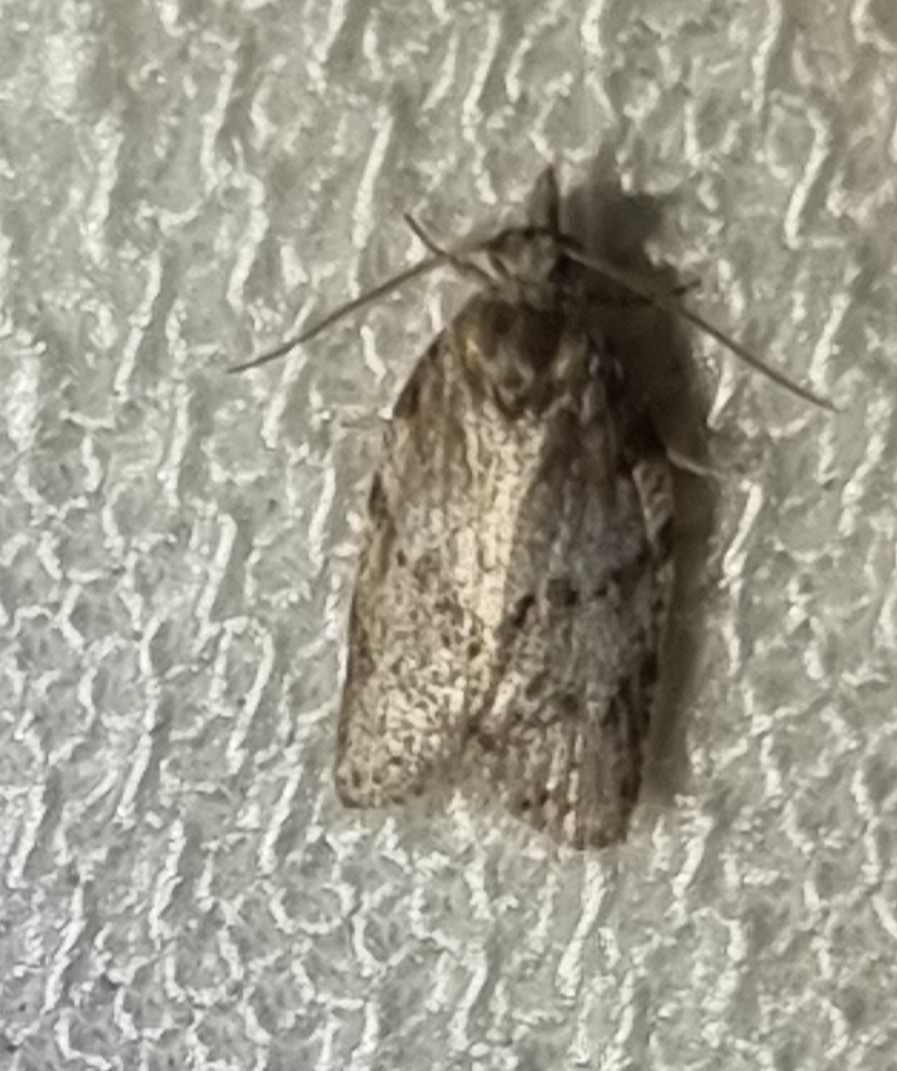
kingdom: Animalia
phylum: Arthropoda
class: Insecta
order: Lepidoptera
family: Tortricidae
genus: Isotenes
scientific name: Isotenes miserana
